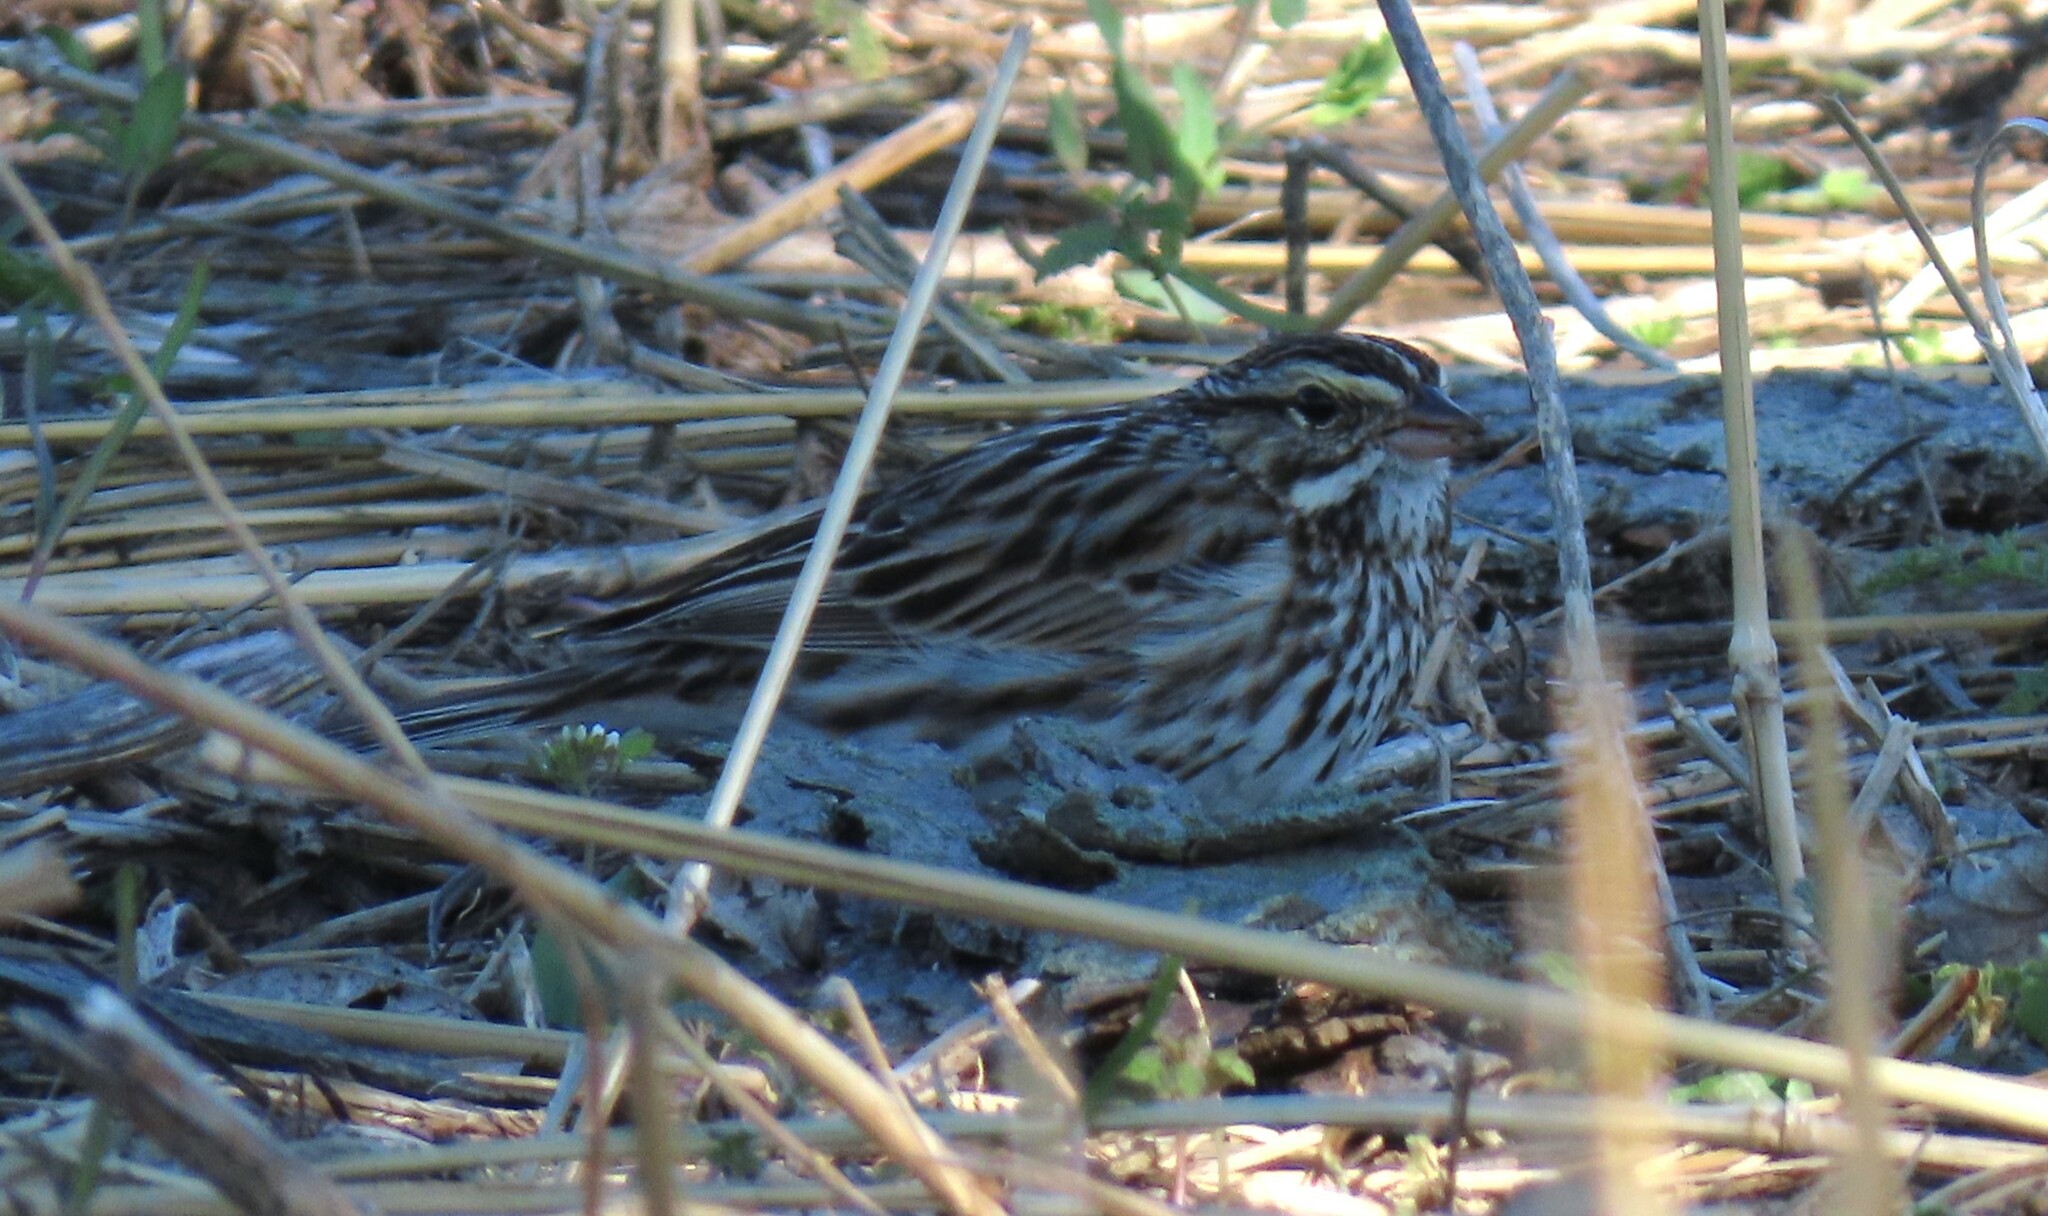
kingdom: Animalia
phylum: Chordata
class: Aves
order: Passeriformes
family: Passerellidae
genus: Passerculus
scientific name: Passerculus sandwichensis
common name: Savannah sparrow
